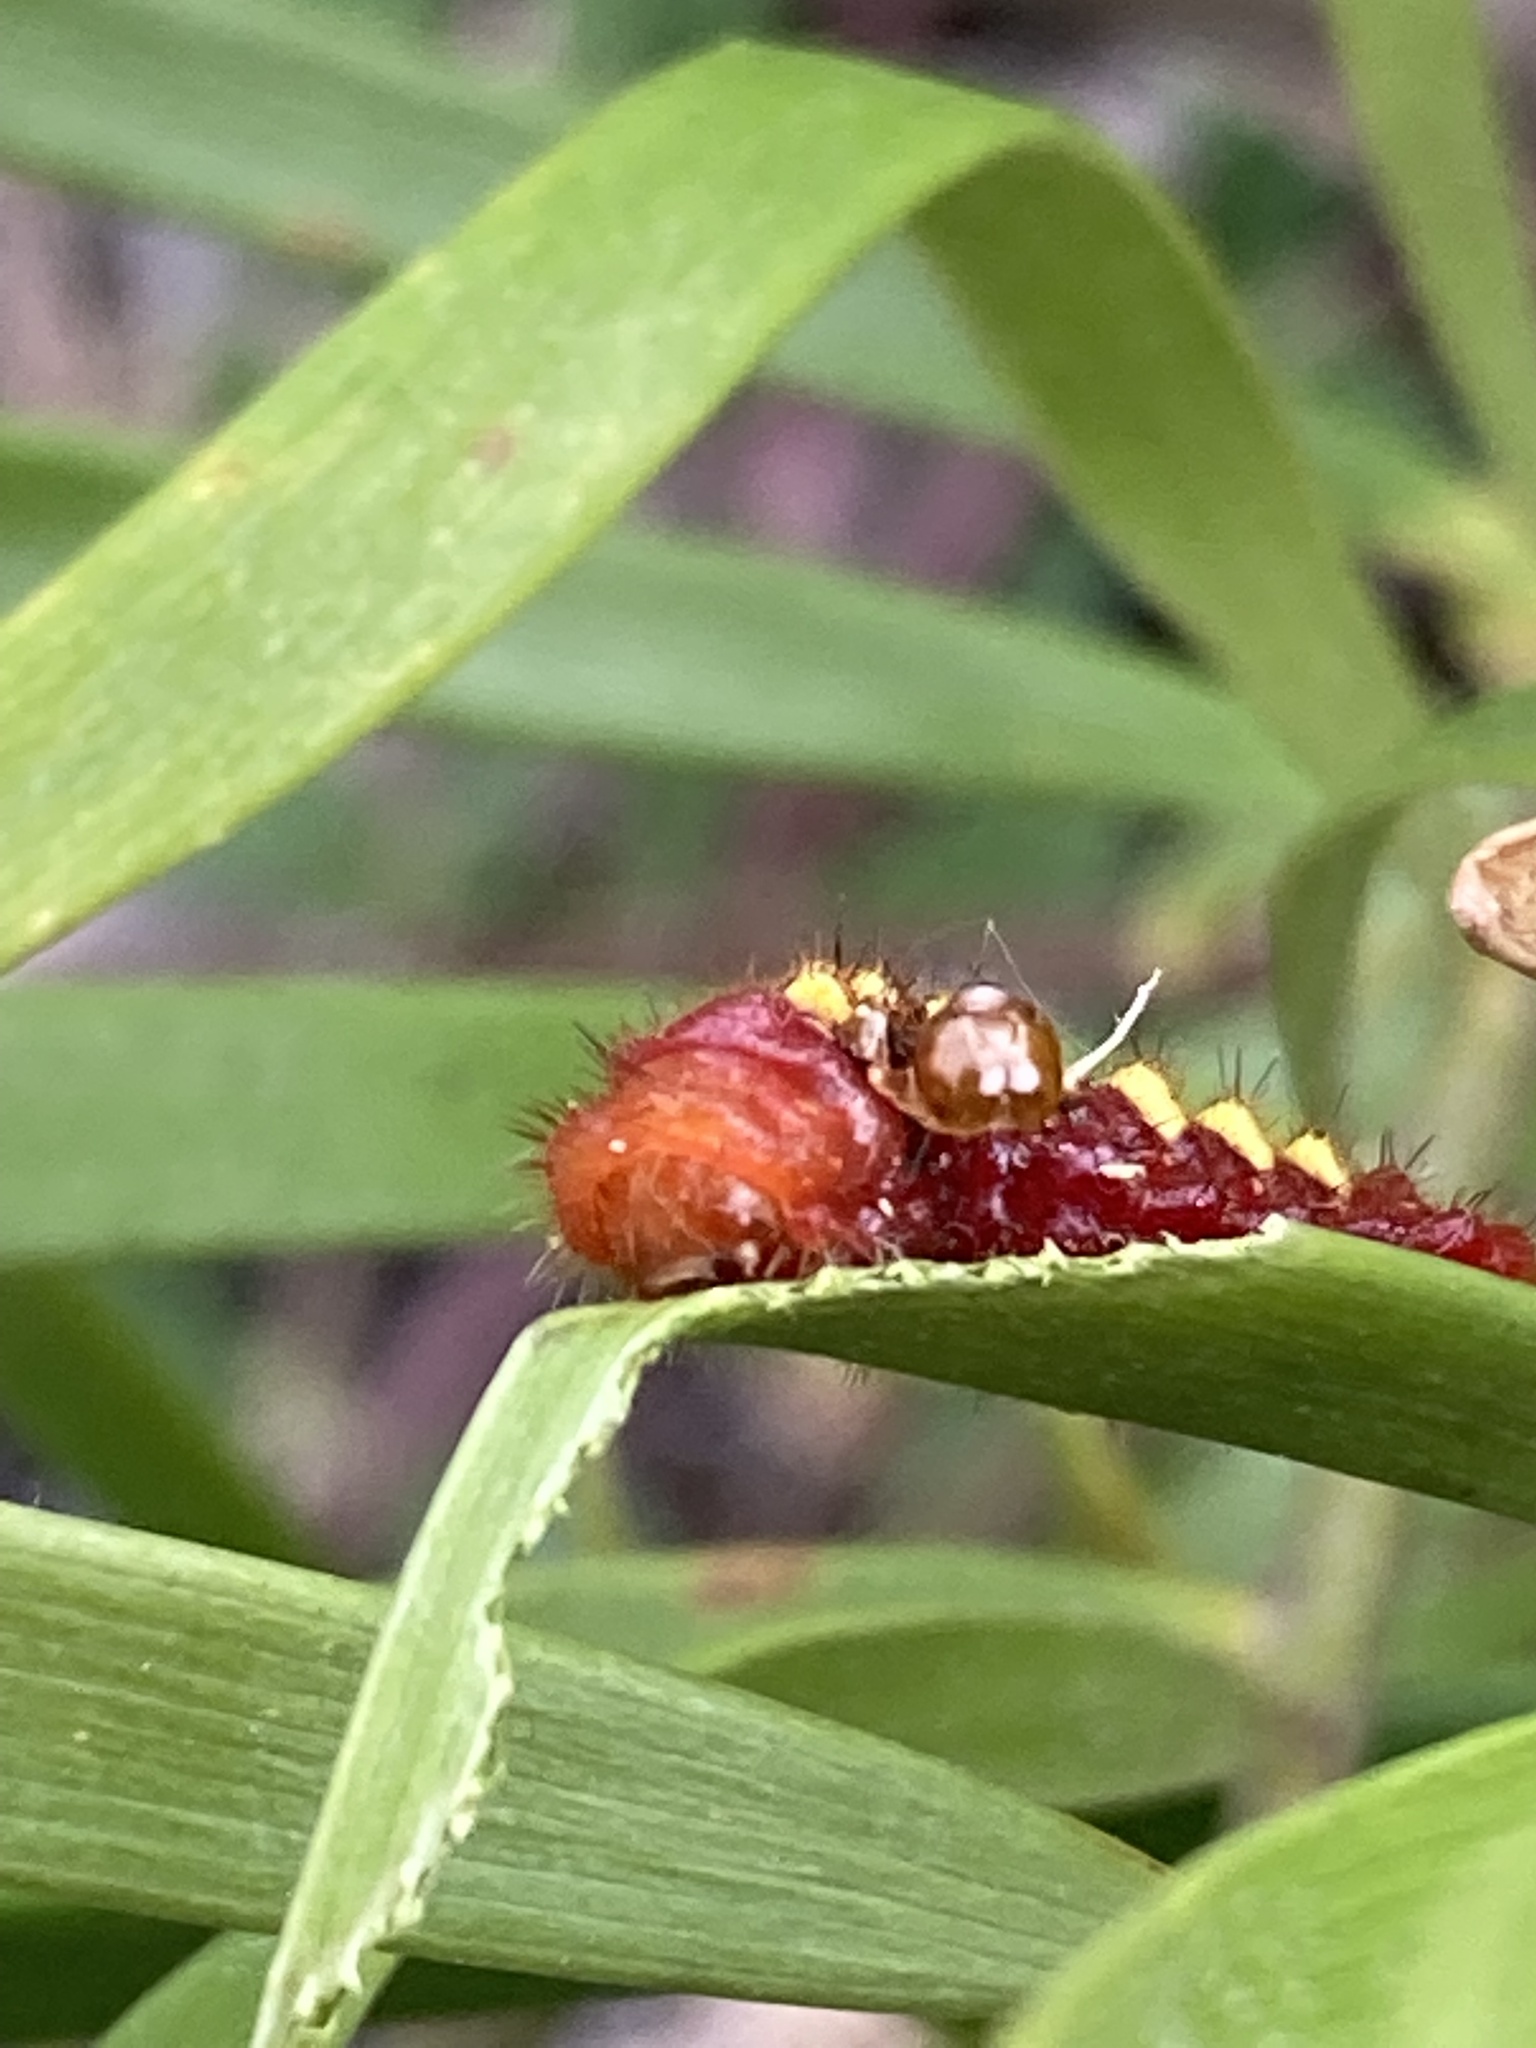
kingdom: Animalia
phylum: Arthropoda
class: Insecta
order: Lepidoptera
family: Lycaenidae
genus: Eumaeus
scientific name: Eumaeus atala
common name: Atala
